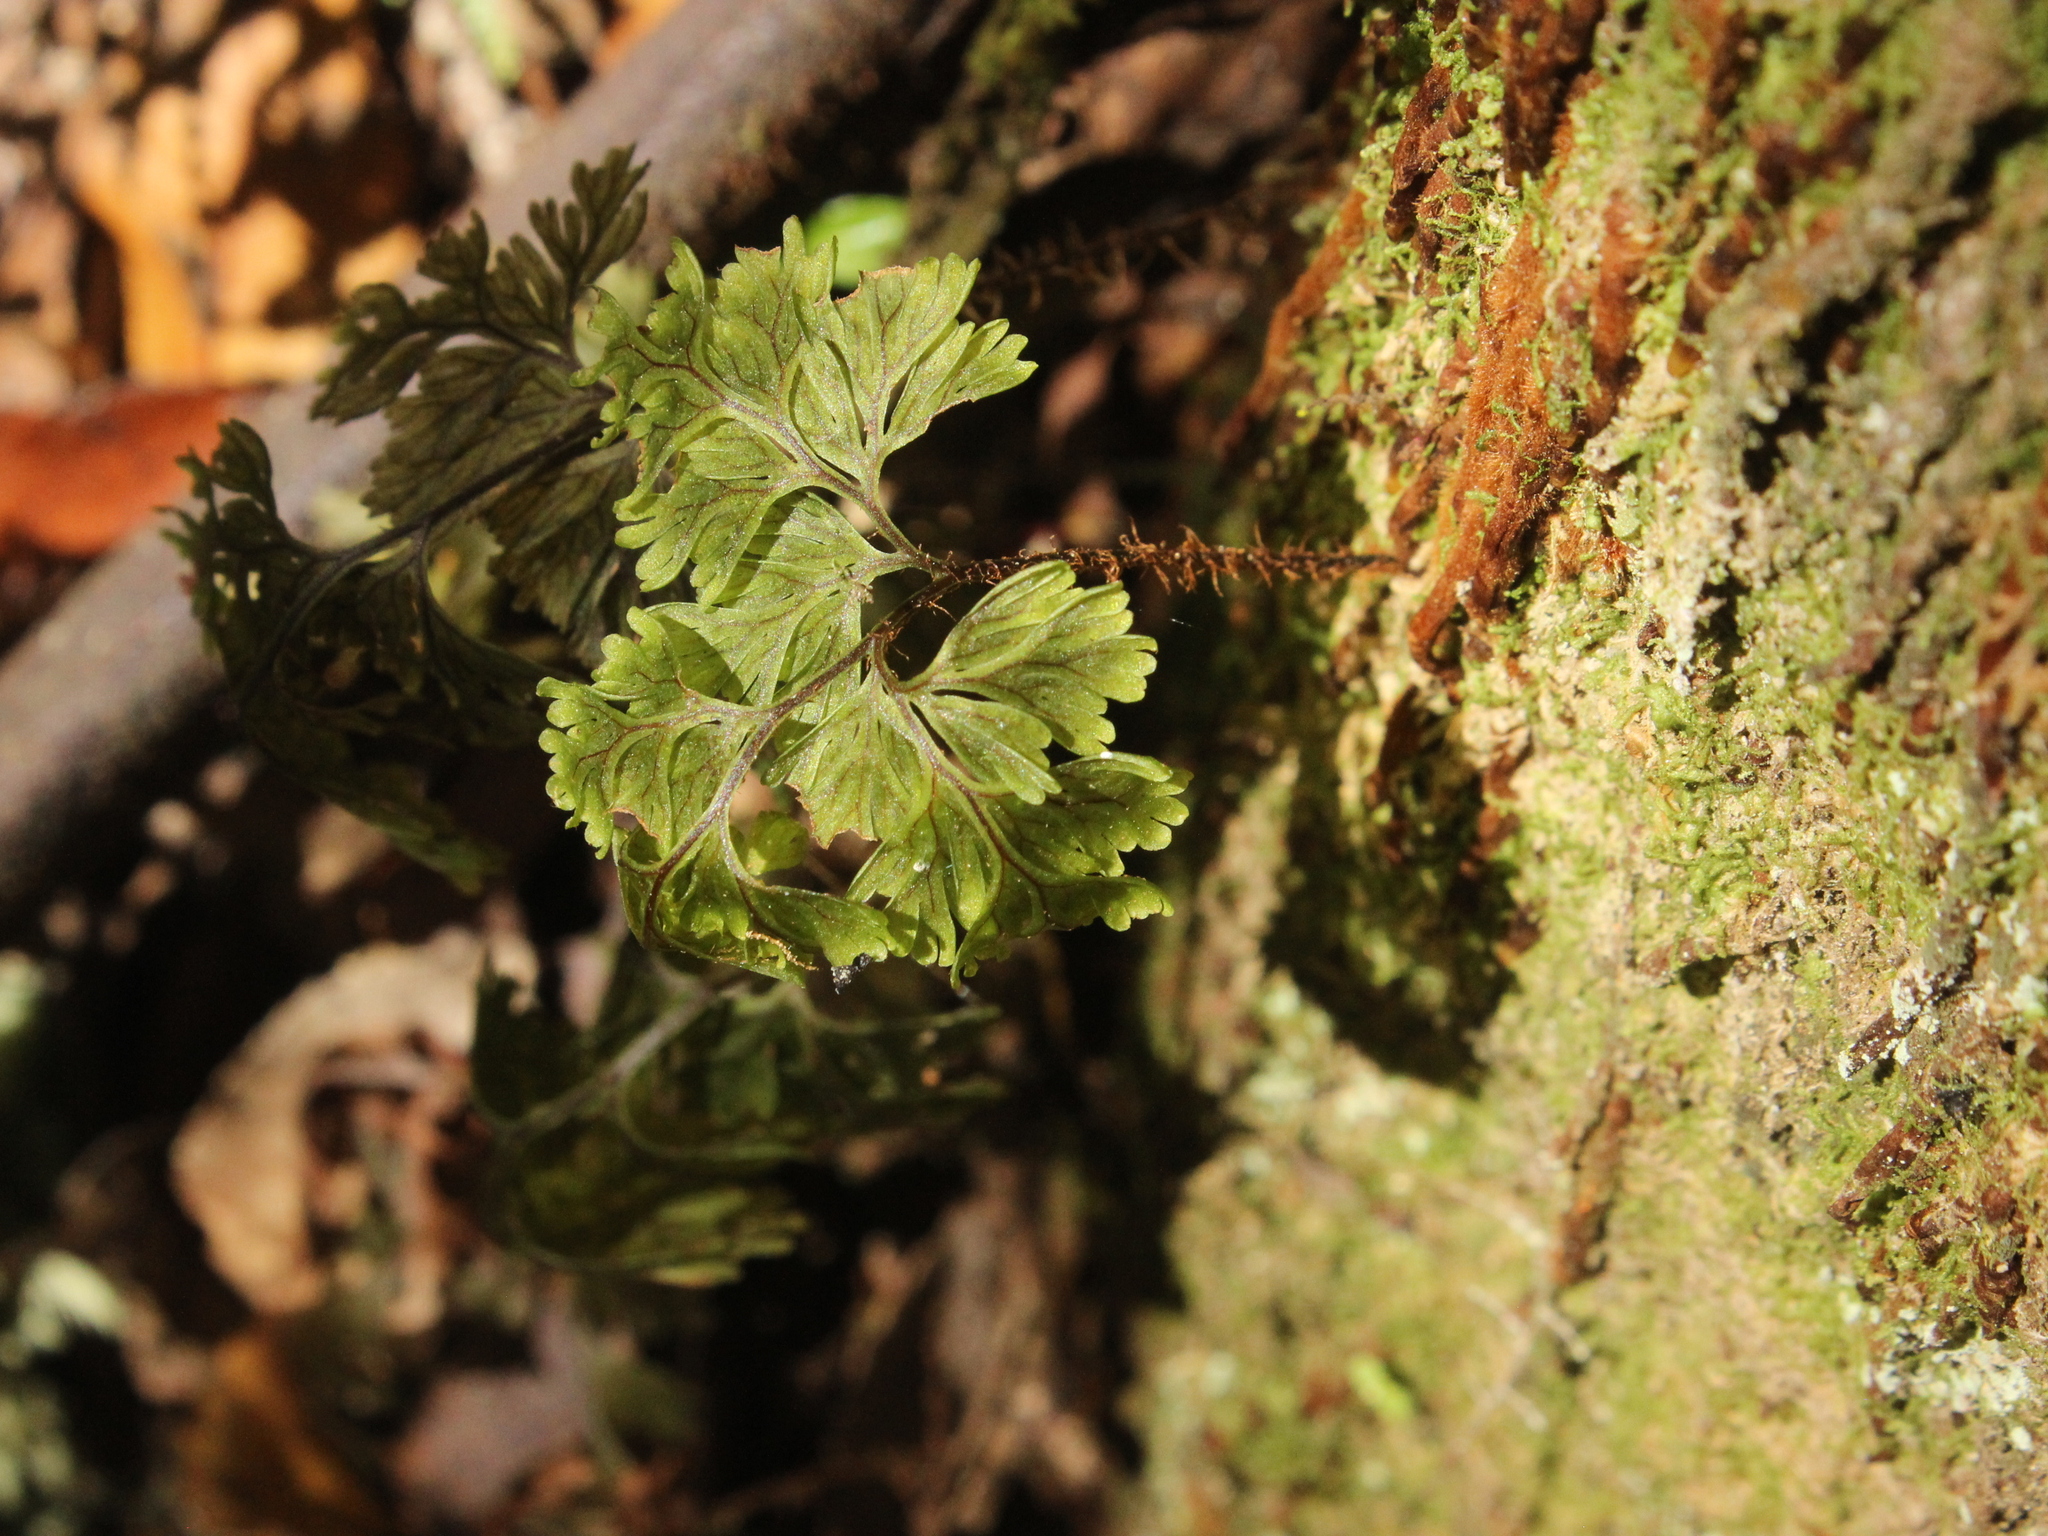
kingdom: Plantae
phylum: Tracheophyta
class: Polypodiopsida
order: Hymenophyllales
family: Hymenophyllaceae
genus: Hymenophyllum
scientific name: Hymenophyllum scabrum
